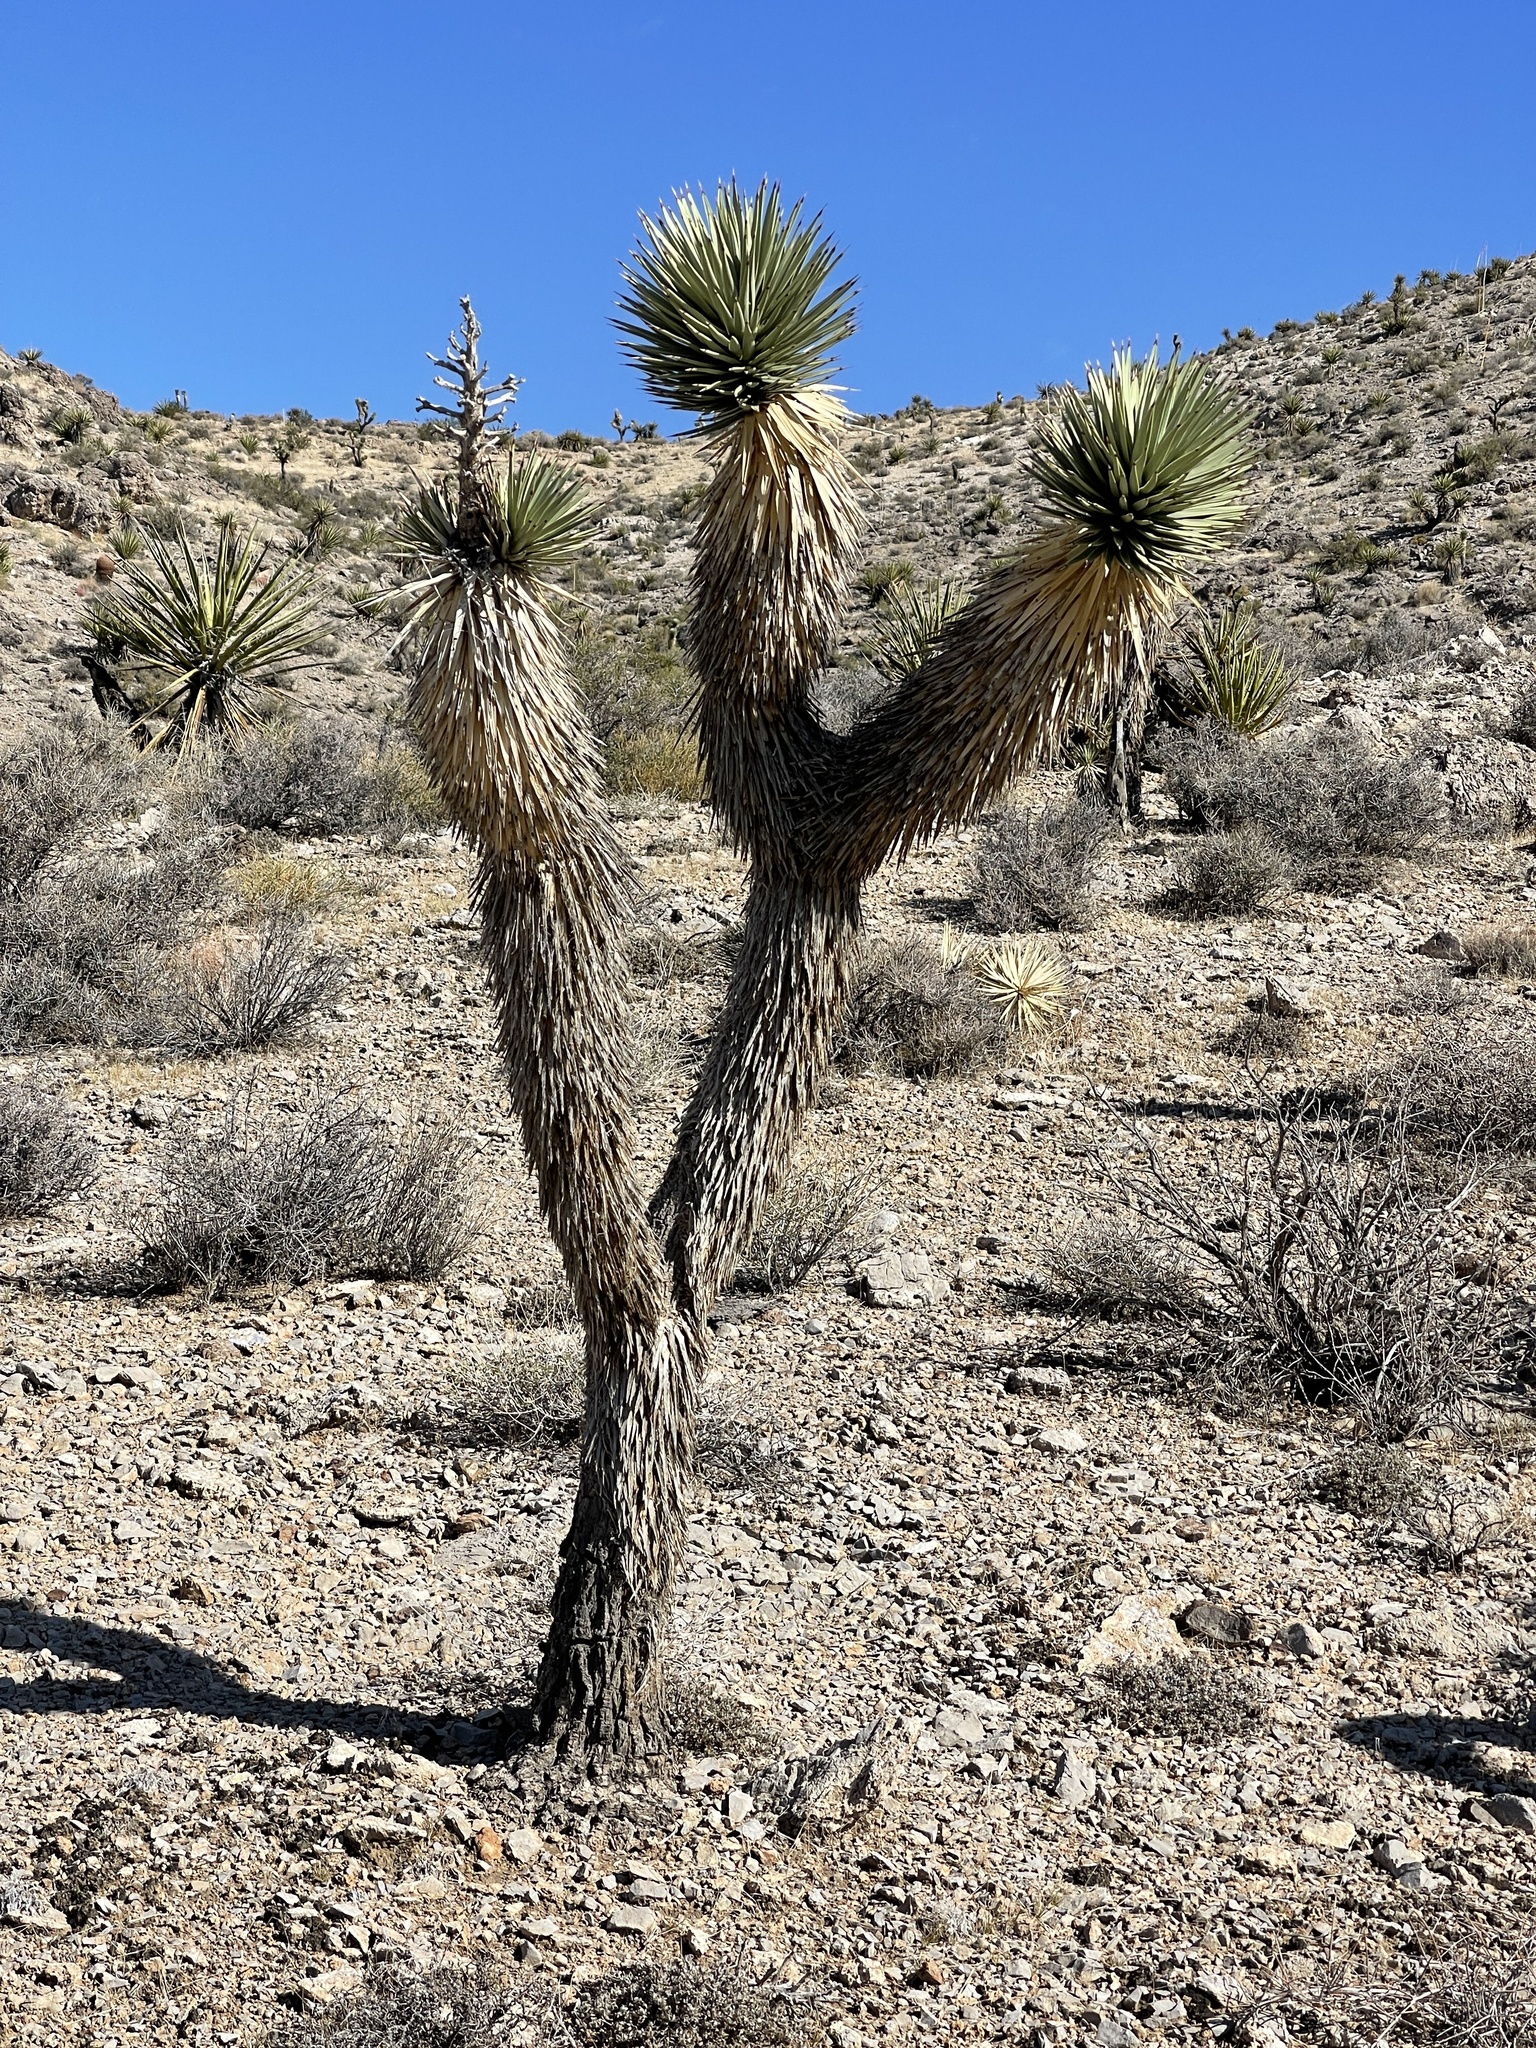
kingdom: Plantae
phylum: Tracheophyta
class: Liliopsida
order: Asparagales
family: Asparagaceae
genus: Yucca
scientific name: Yucca brevifolia
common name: Joshua tree
